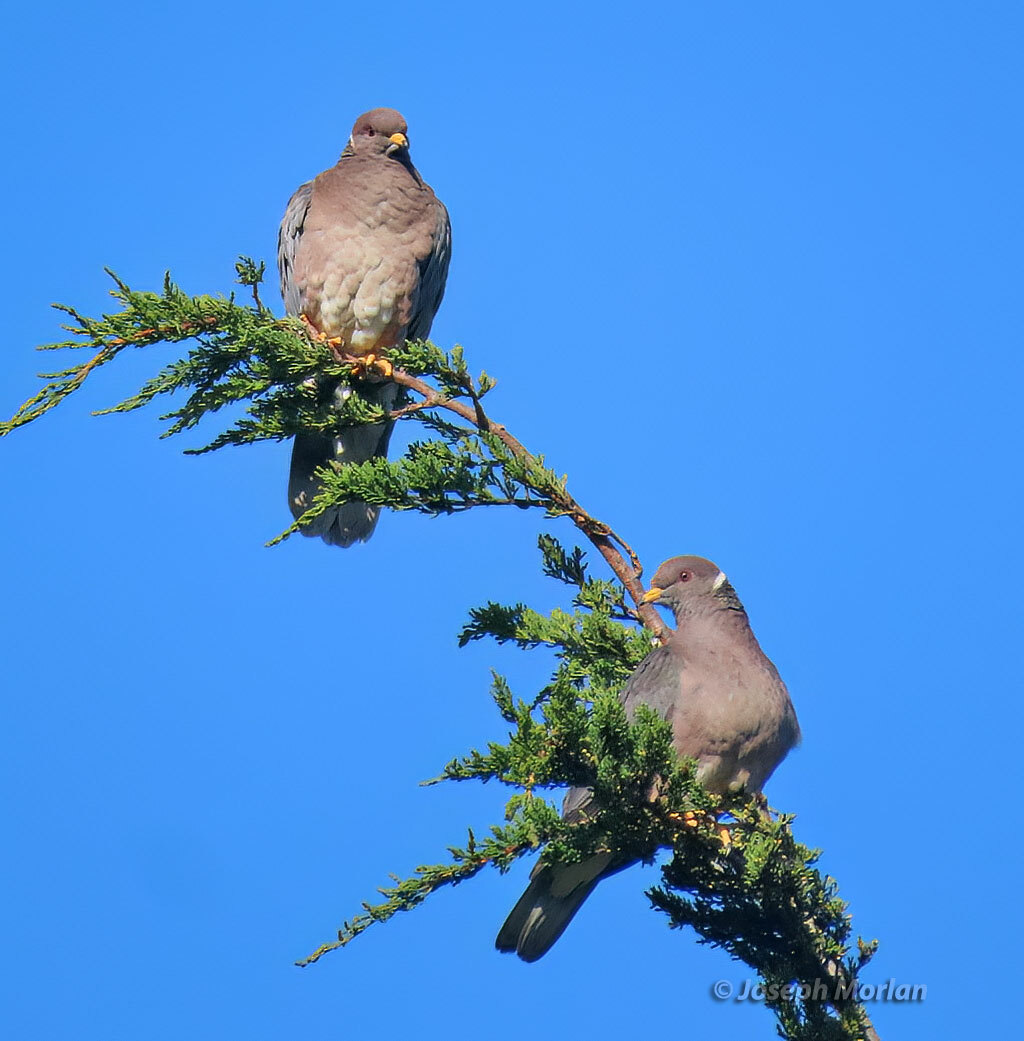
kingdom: Animalia
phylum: Chordata
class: Aves
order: Columbiformes
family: Columbidae
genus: Patagioenas
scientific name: Patagioenas fasciata
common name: Band-tailed pigeon
